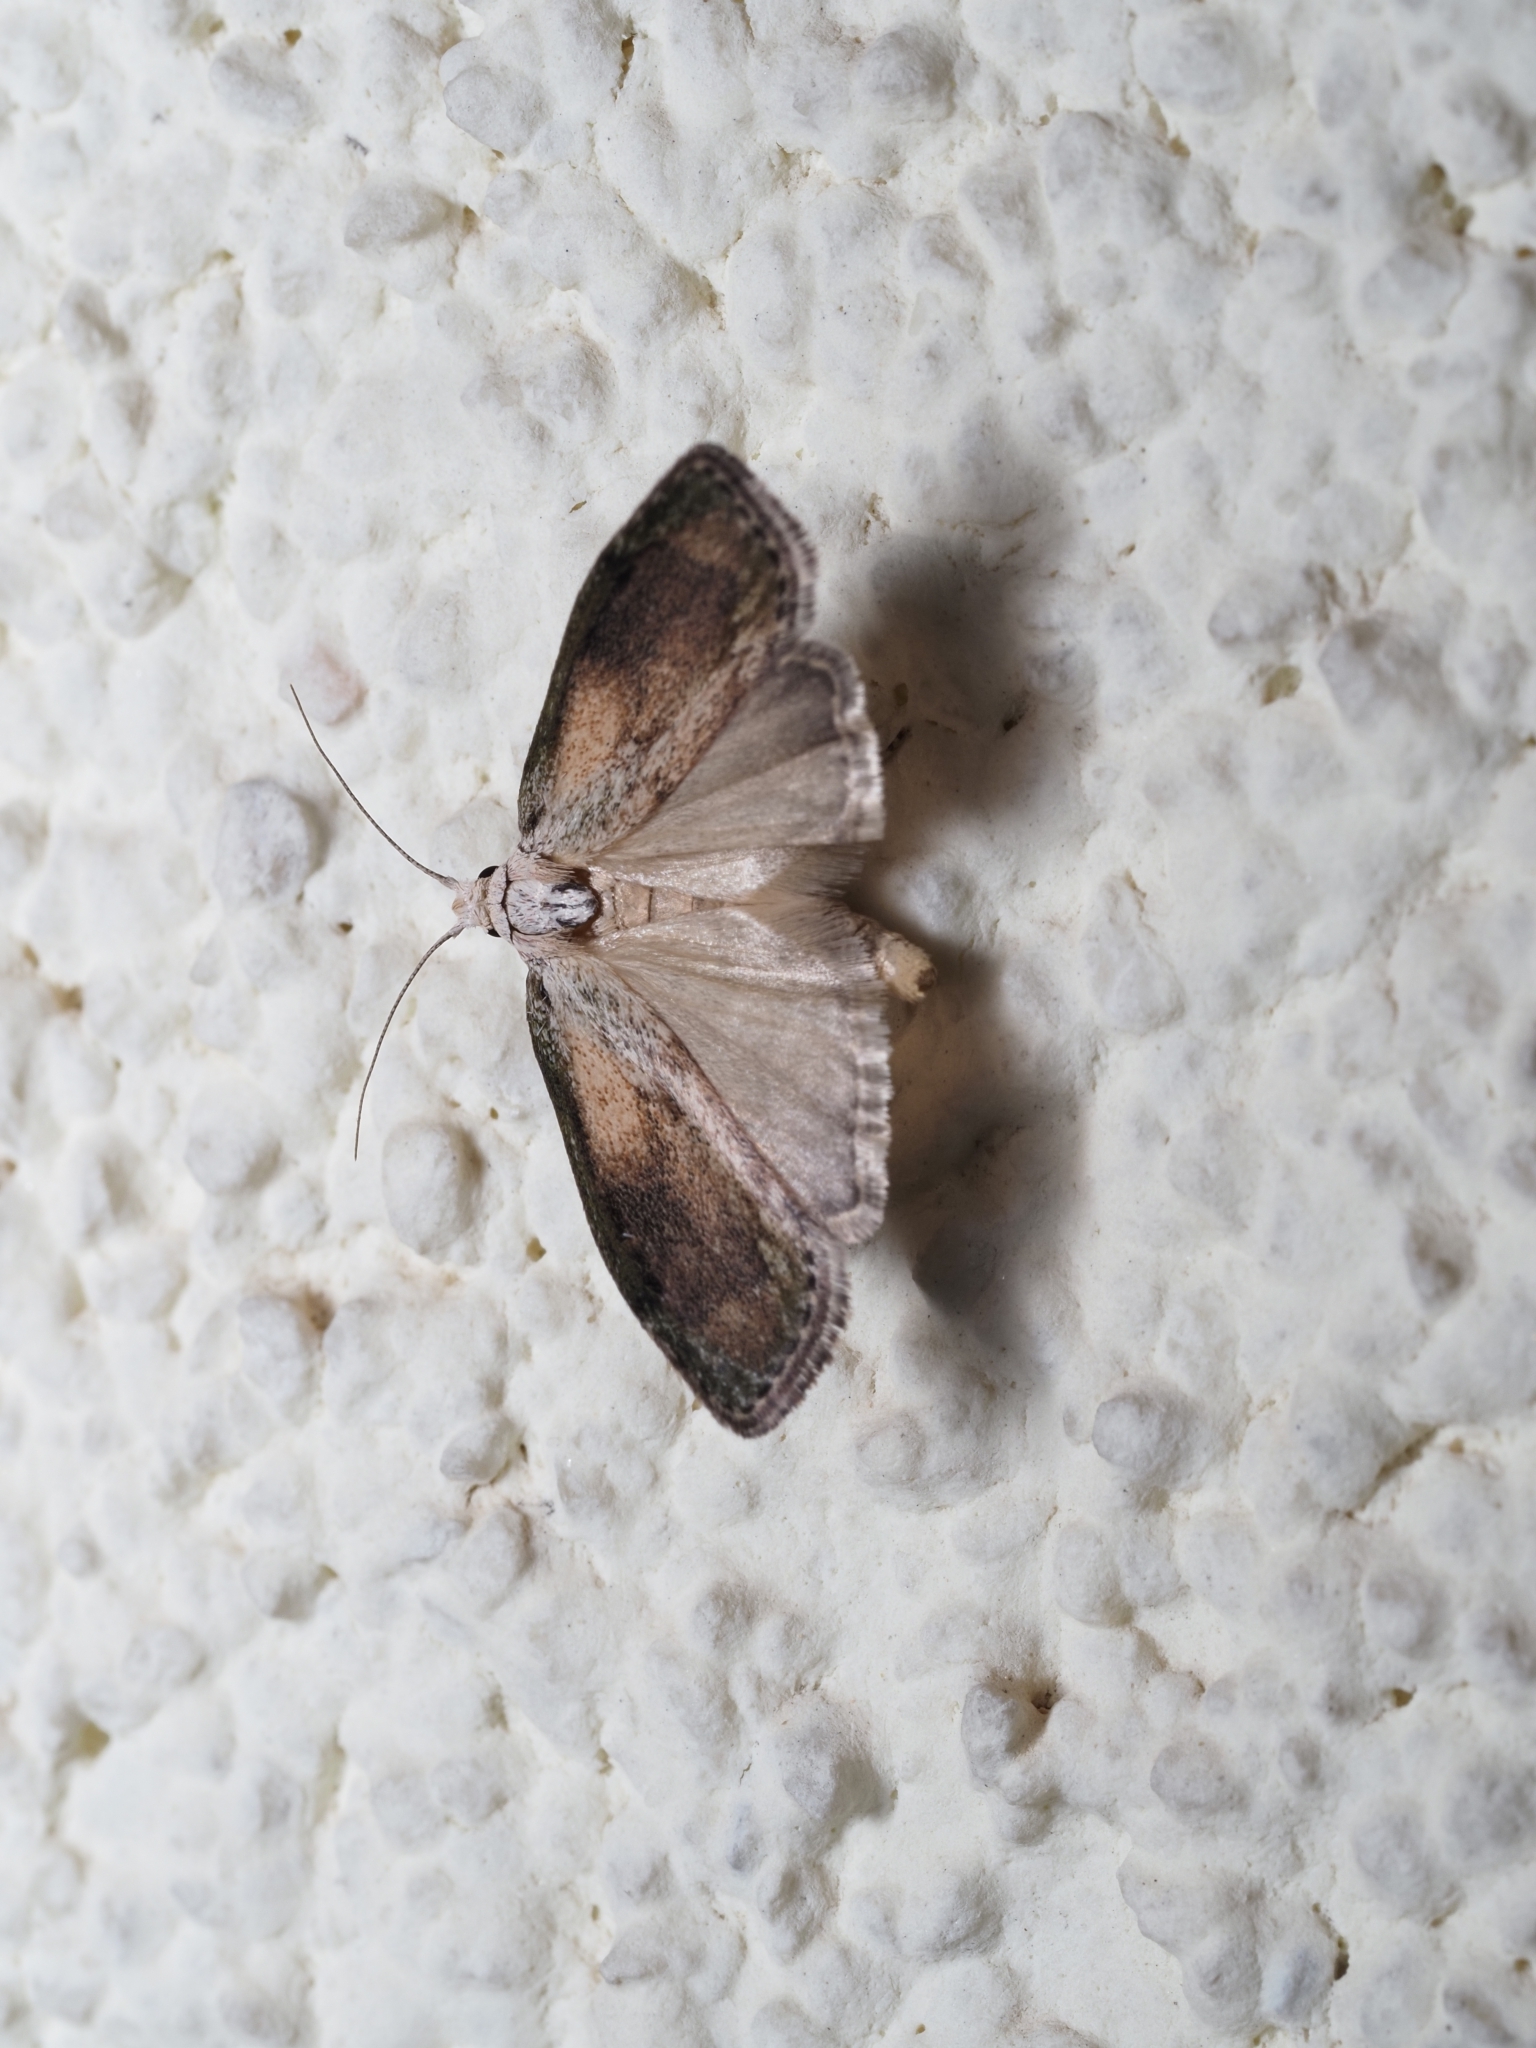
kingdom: Animalia
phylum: Arthropoda
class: Insecta
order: Lepidoptera
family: Pyralidae
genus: Aphomia
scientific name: Aphomia sociella
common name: Bee moth
